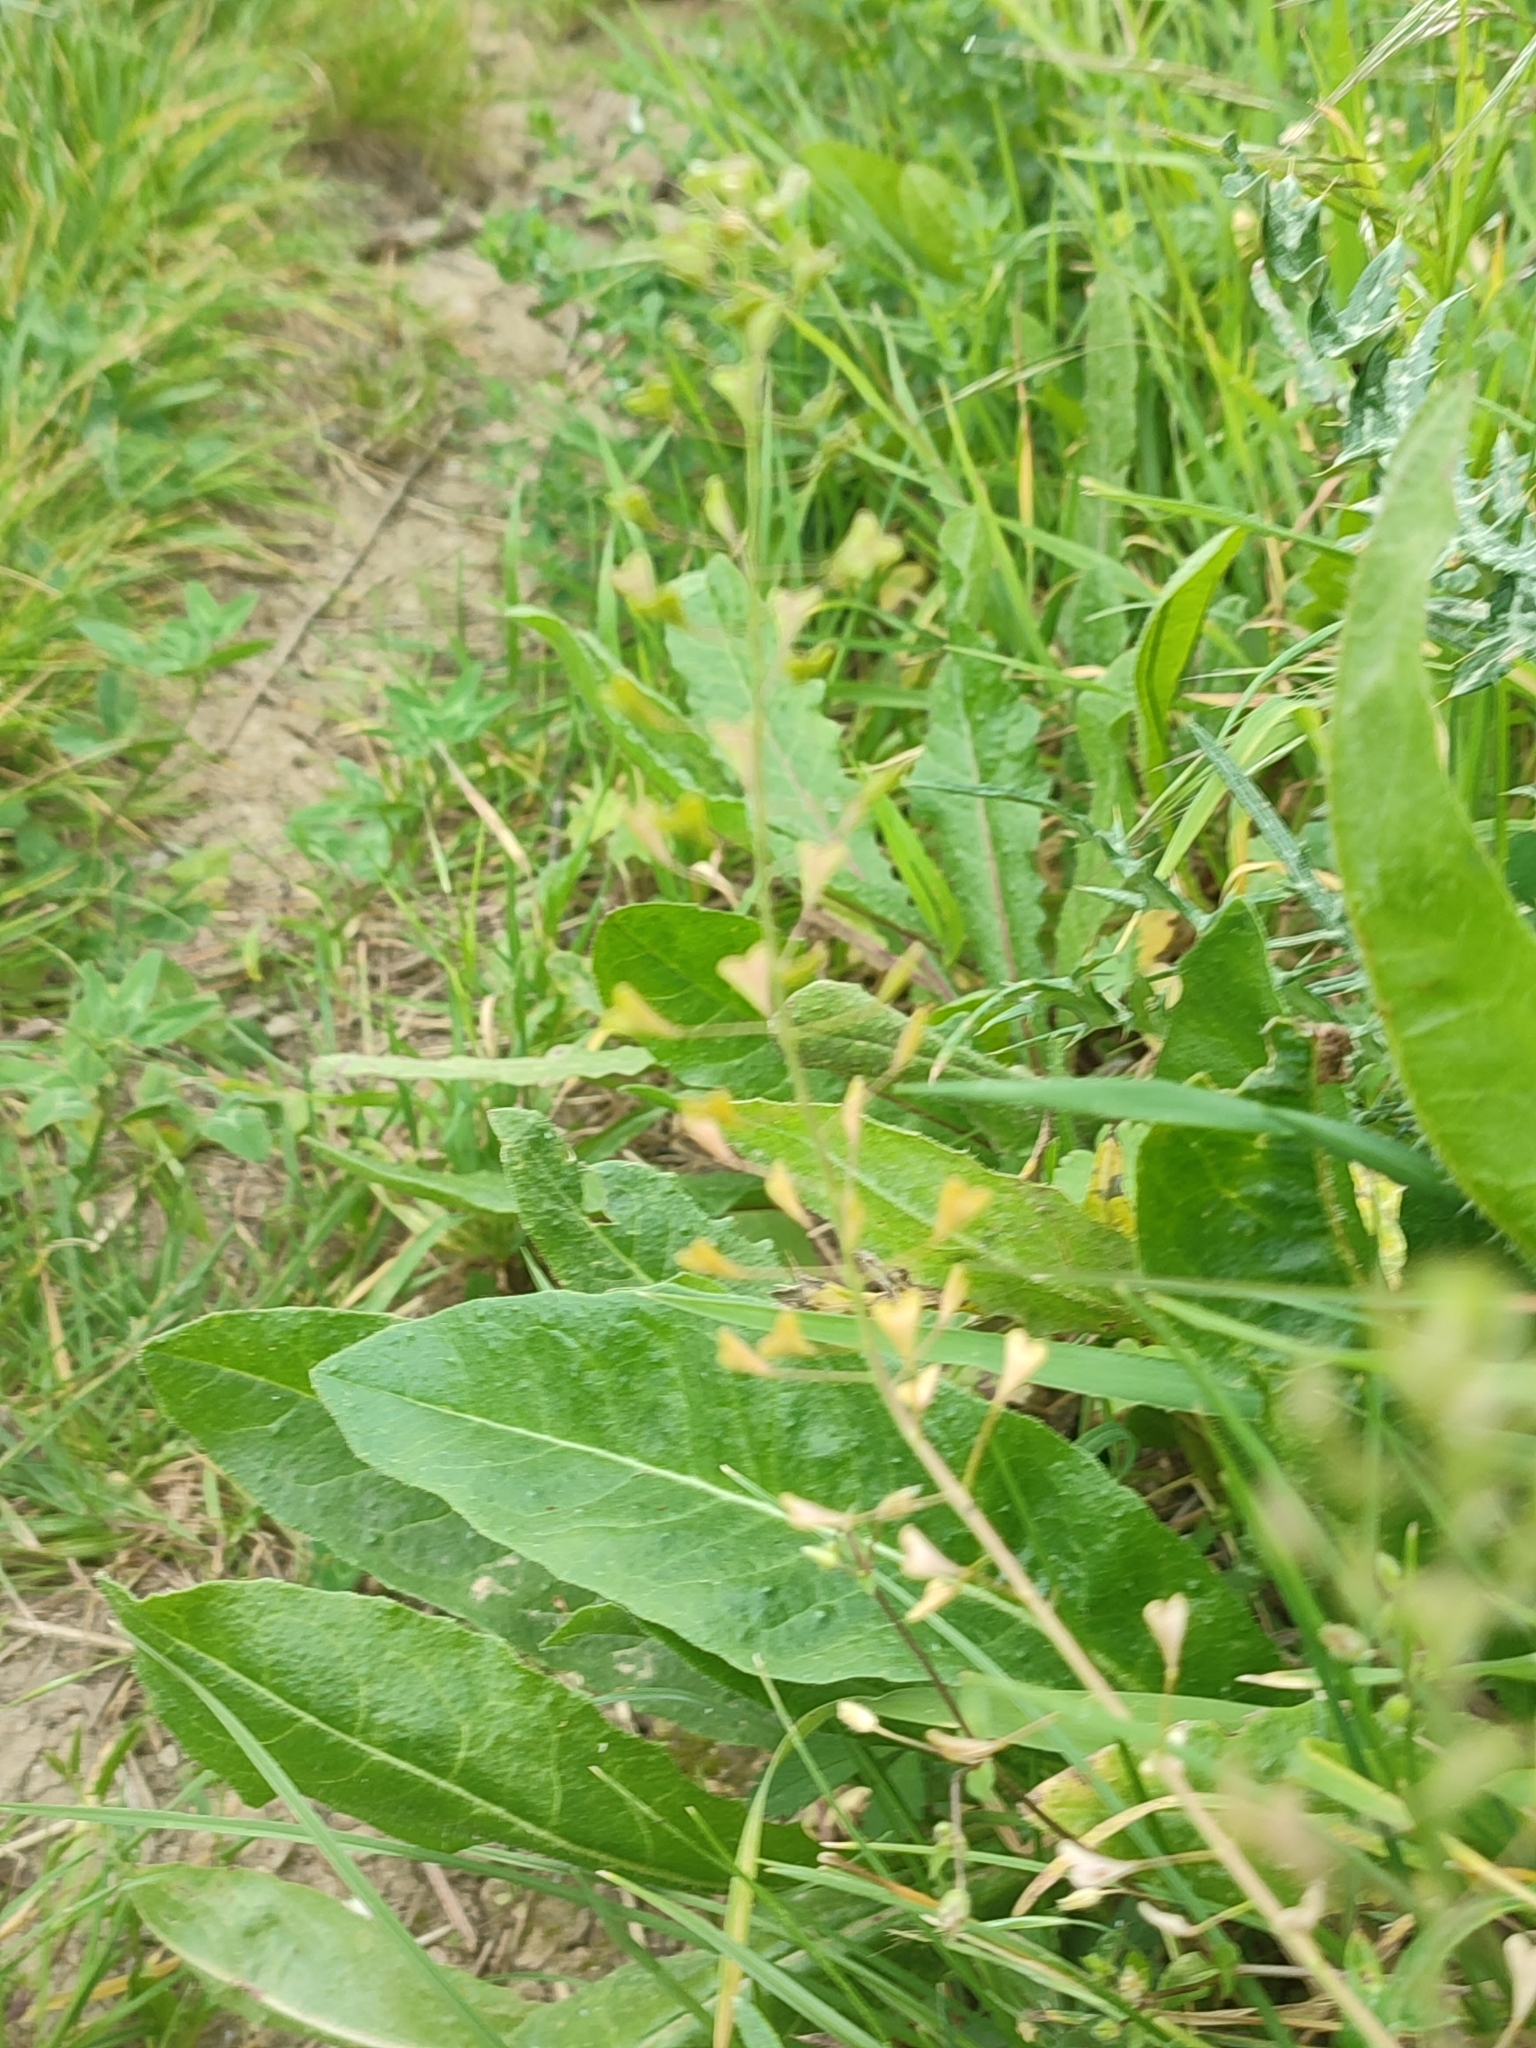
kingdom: Plantae
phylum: Tracheophyta
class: Magnoliopsida
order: Brassicales
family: Brassicaceae
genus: Capsella
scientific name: Capsella bursa-pastoris
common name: Shepherd's purse
